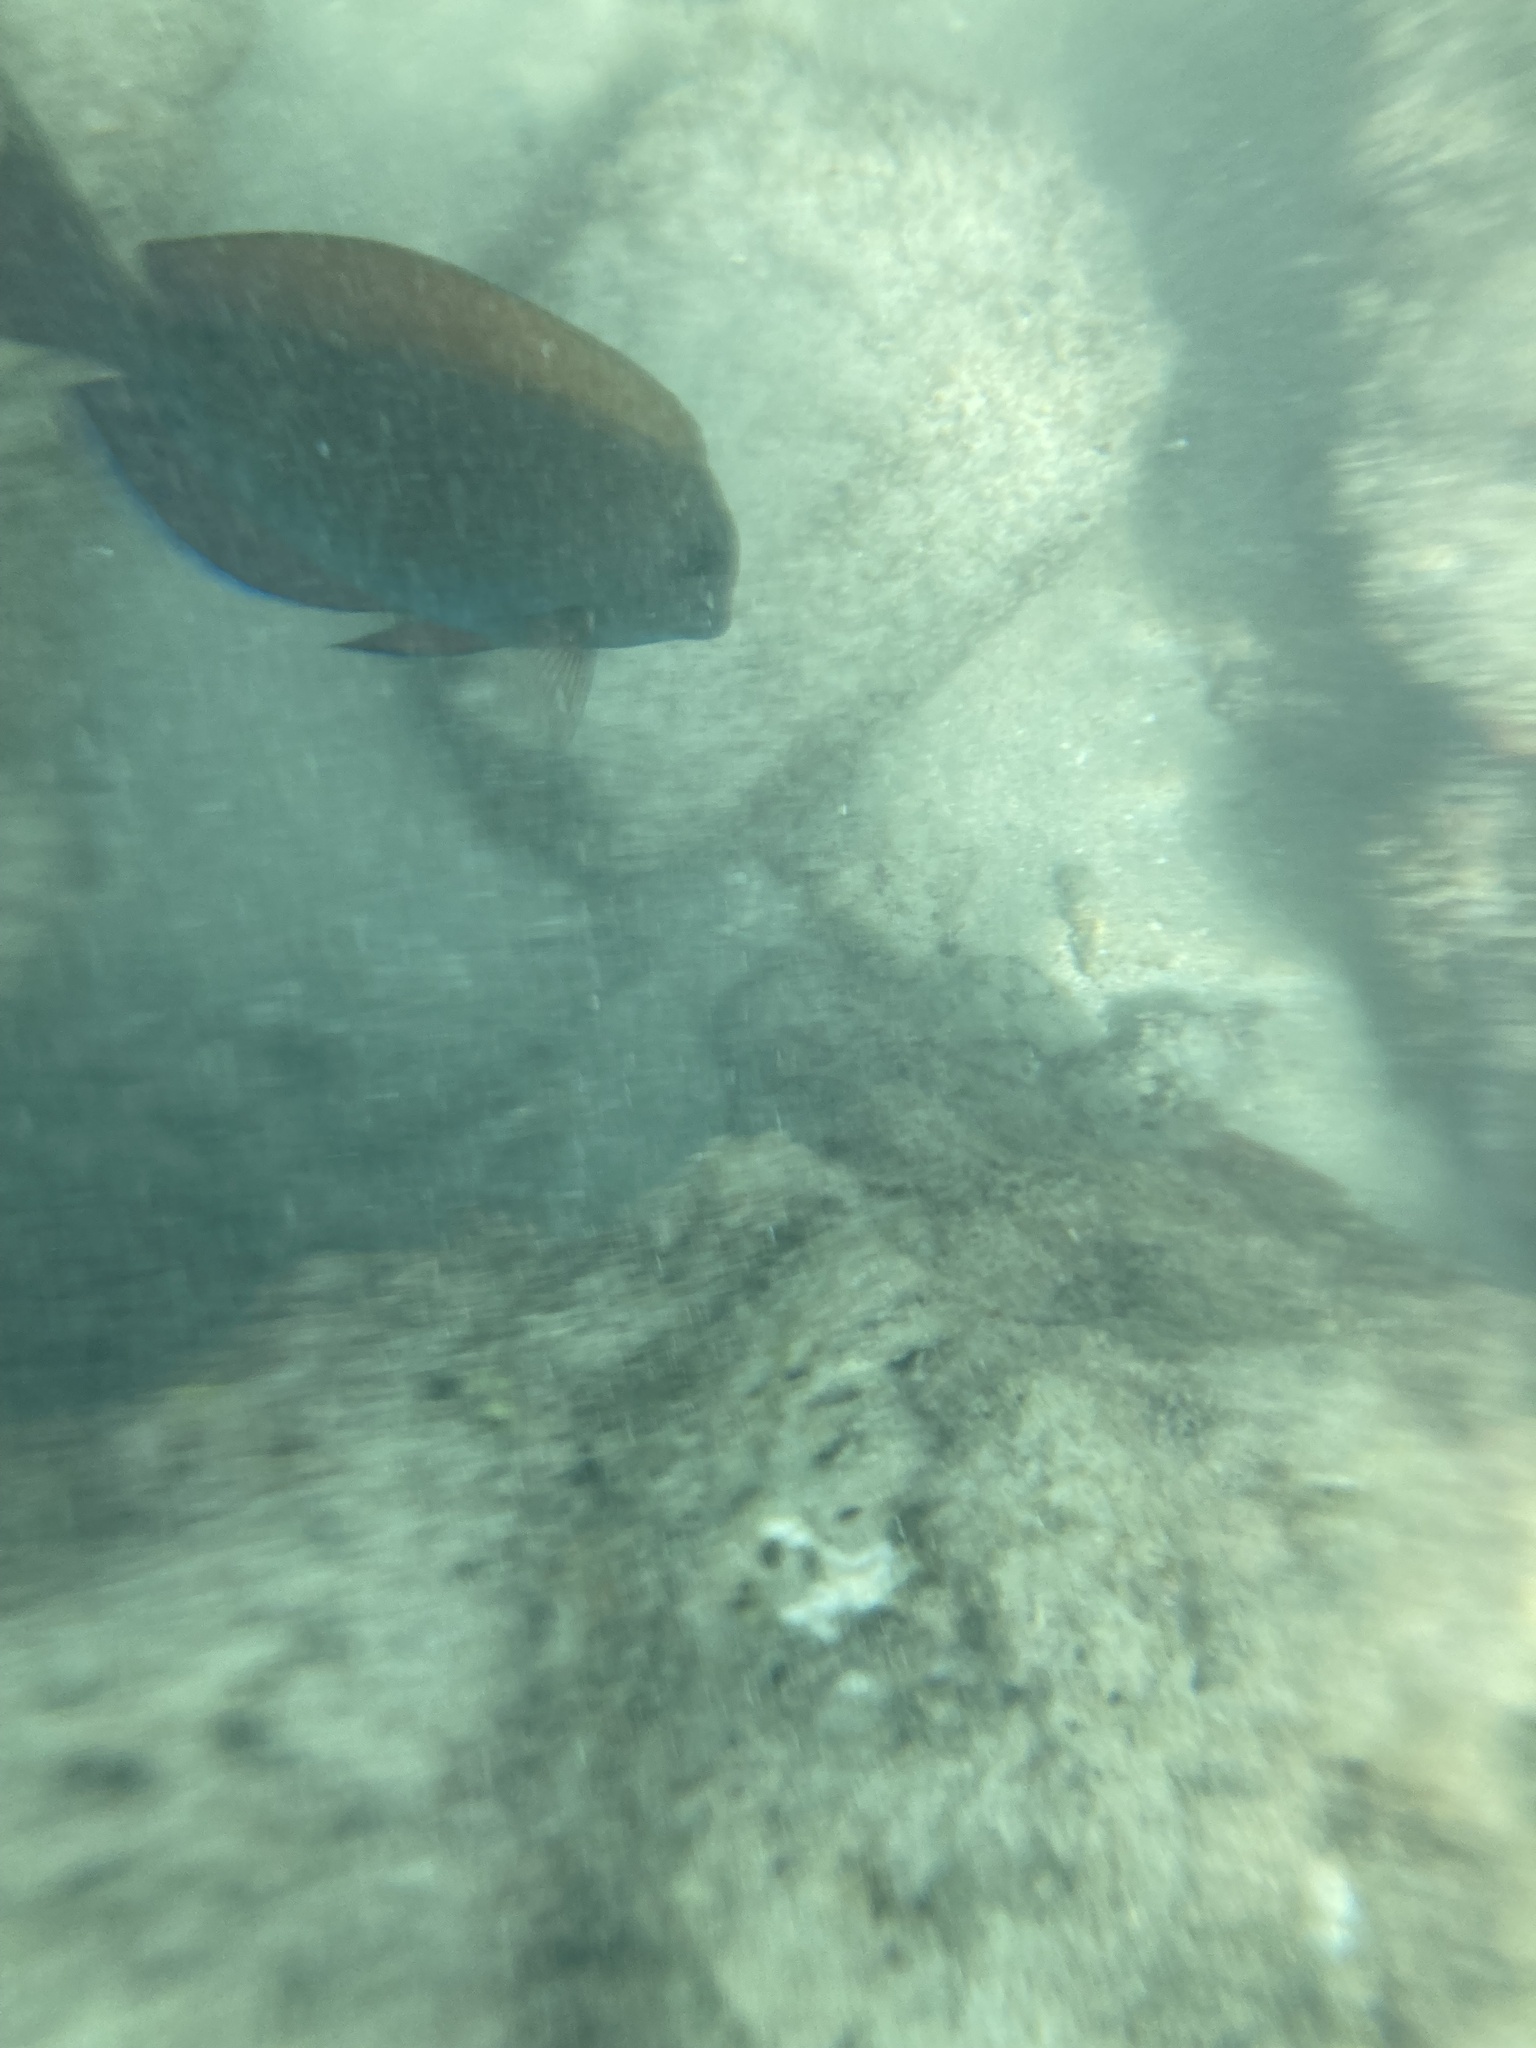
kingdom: Animalia
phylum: Chordata
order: Perciformes
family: Acanthuridae
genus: Acanthurus
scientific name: Acanthurus nigrofuscus
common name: Blackspot surgeonfish
